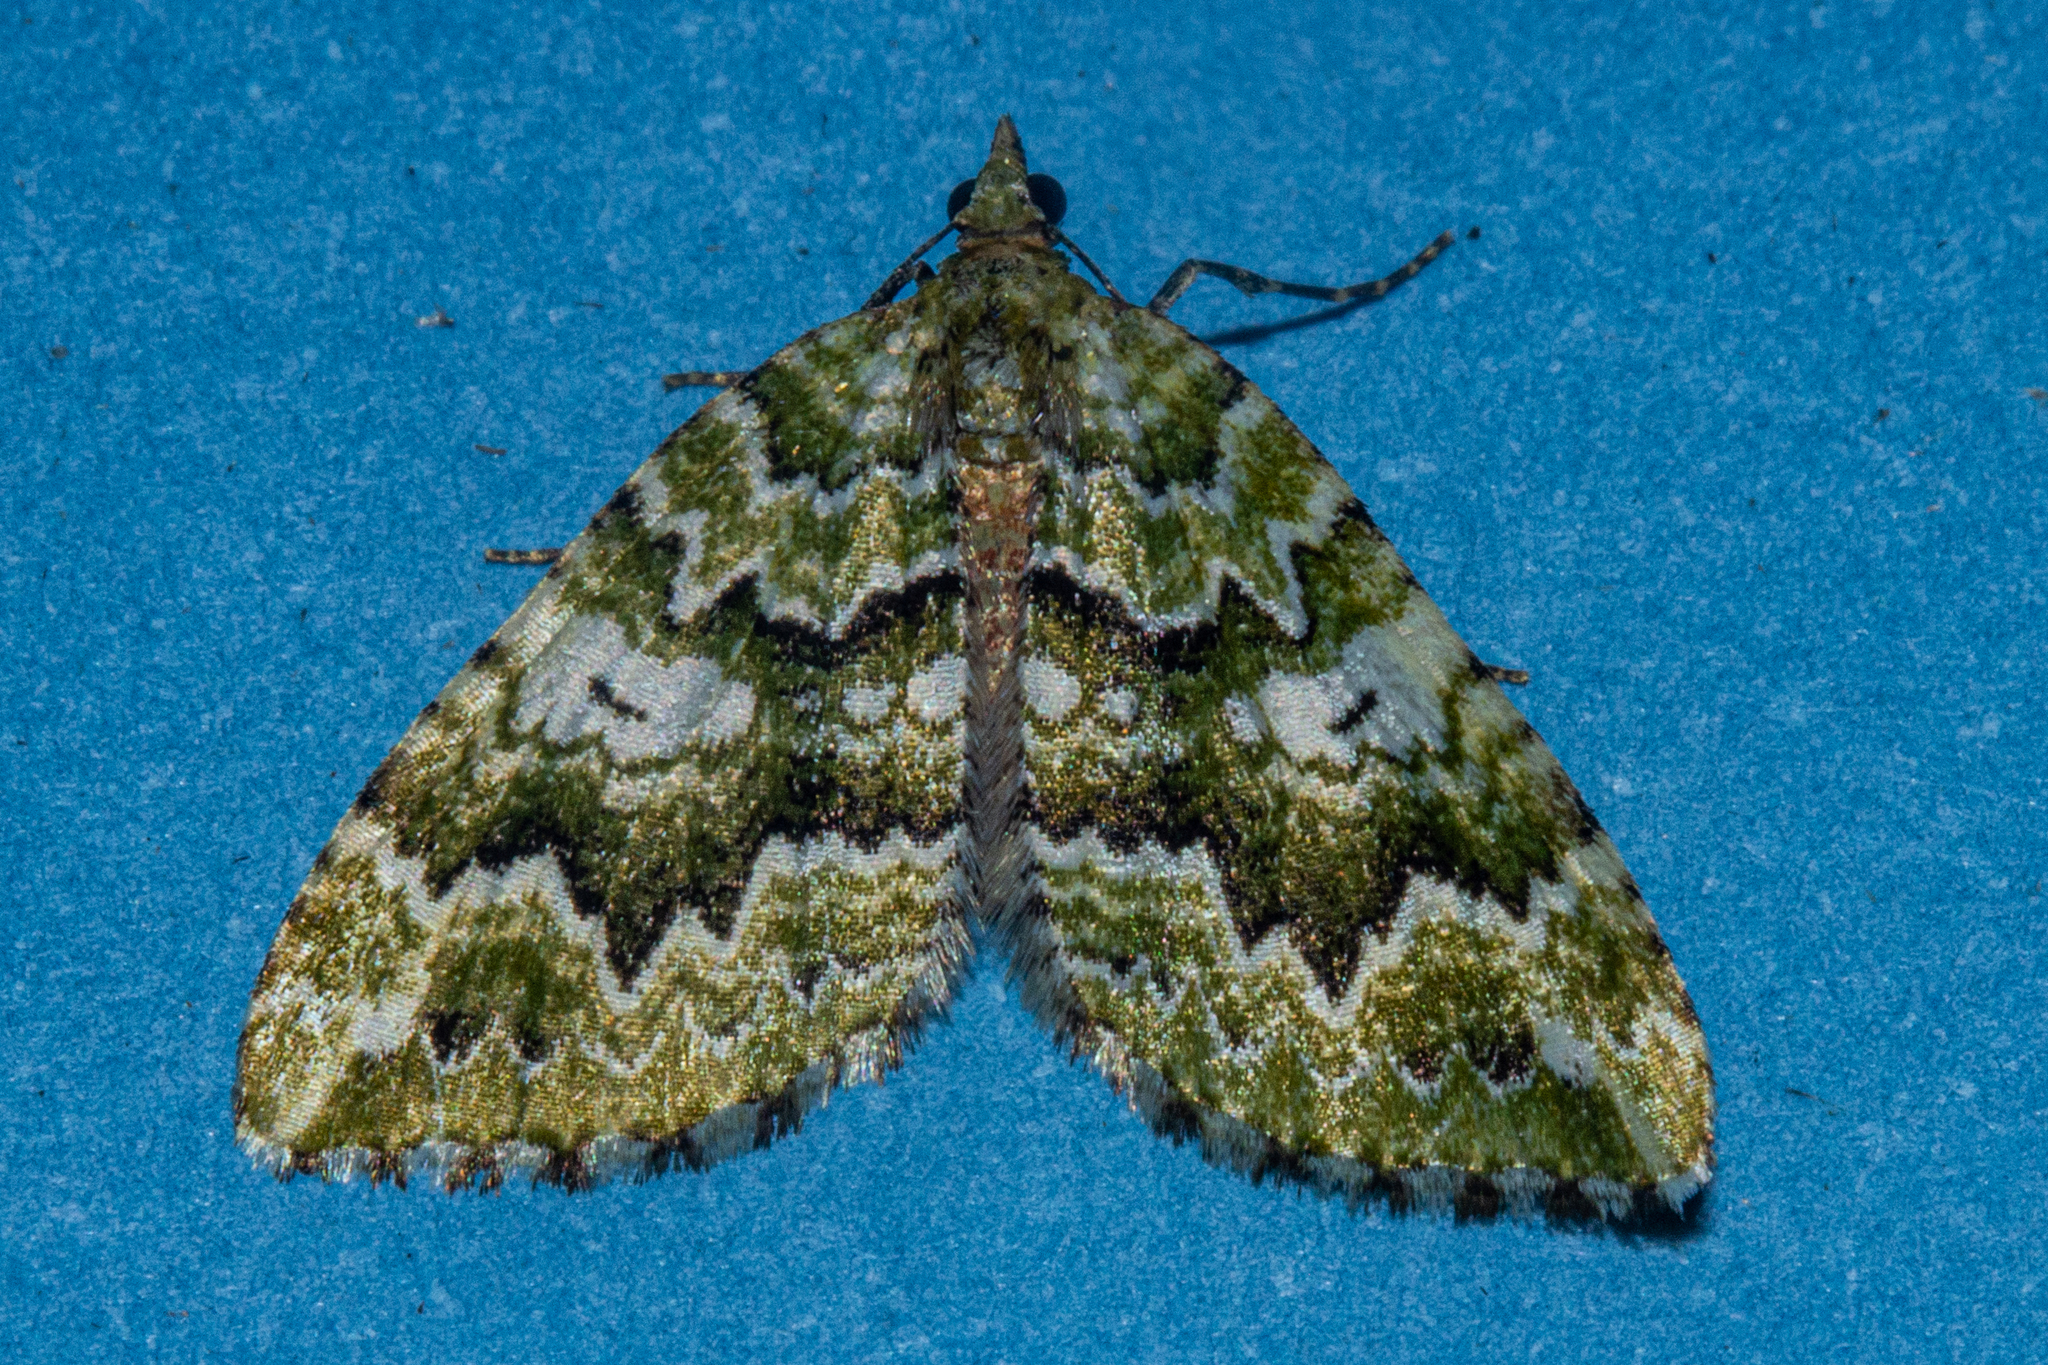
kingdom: Animalia
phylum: Arthropoda
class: Insecta
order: Lepidoptera
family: Geometridae
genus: Asaphodes
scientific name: Asaphodes beata
